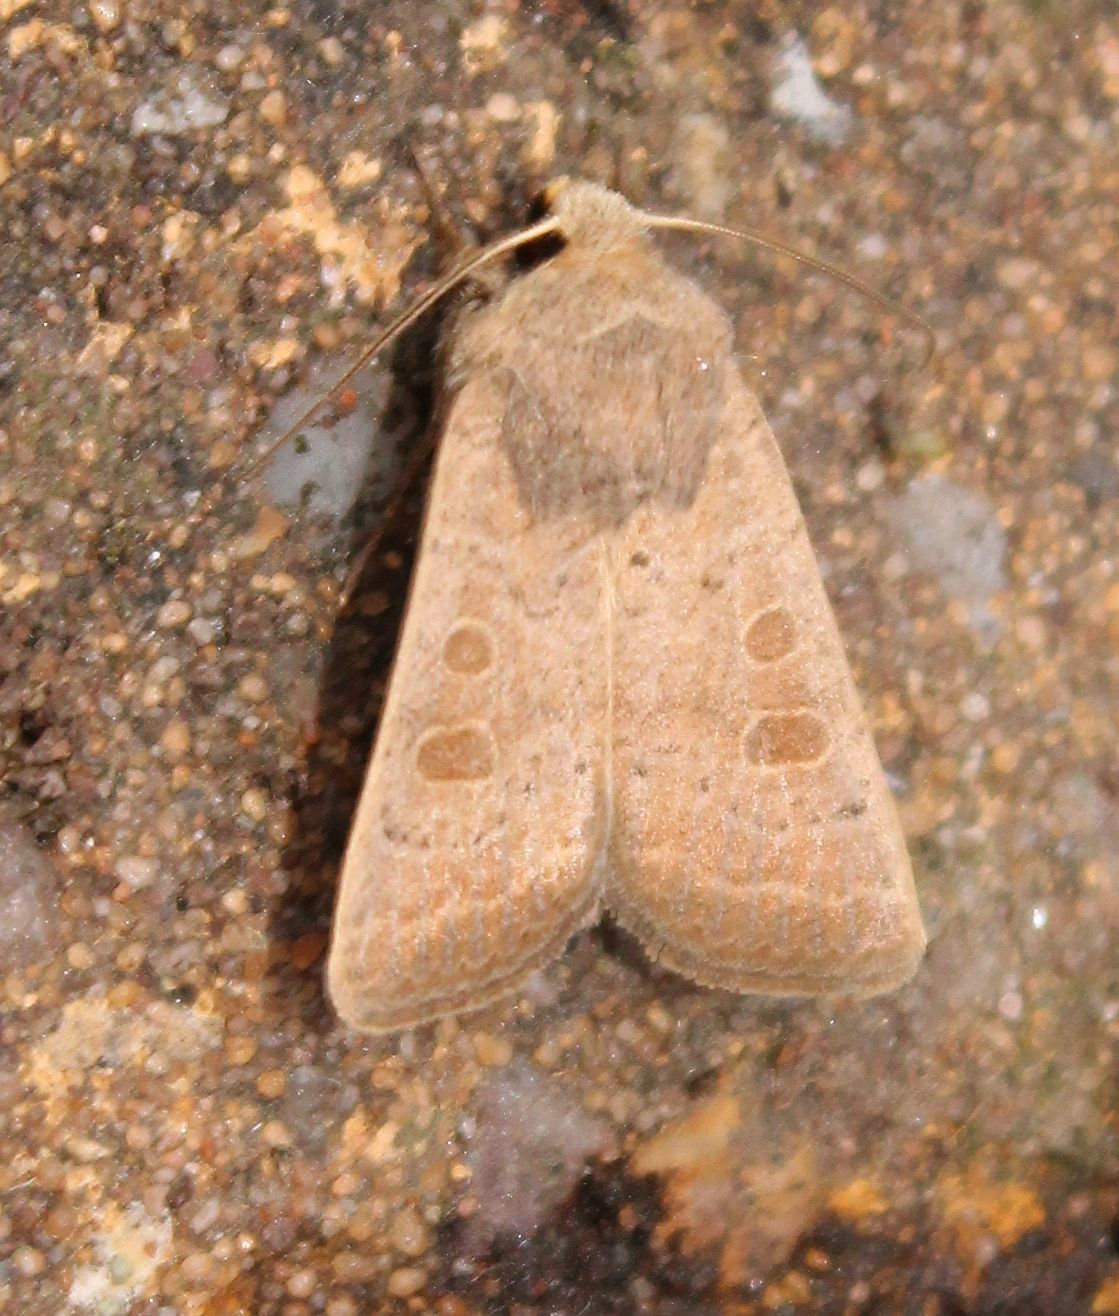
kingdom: Animalia
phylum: Arthropoda
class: Insecta
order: Lepidoptera
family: Noctuidae
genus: Hoplodrina
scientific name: Hoplodrina ambigua
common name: Vine's rustic
